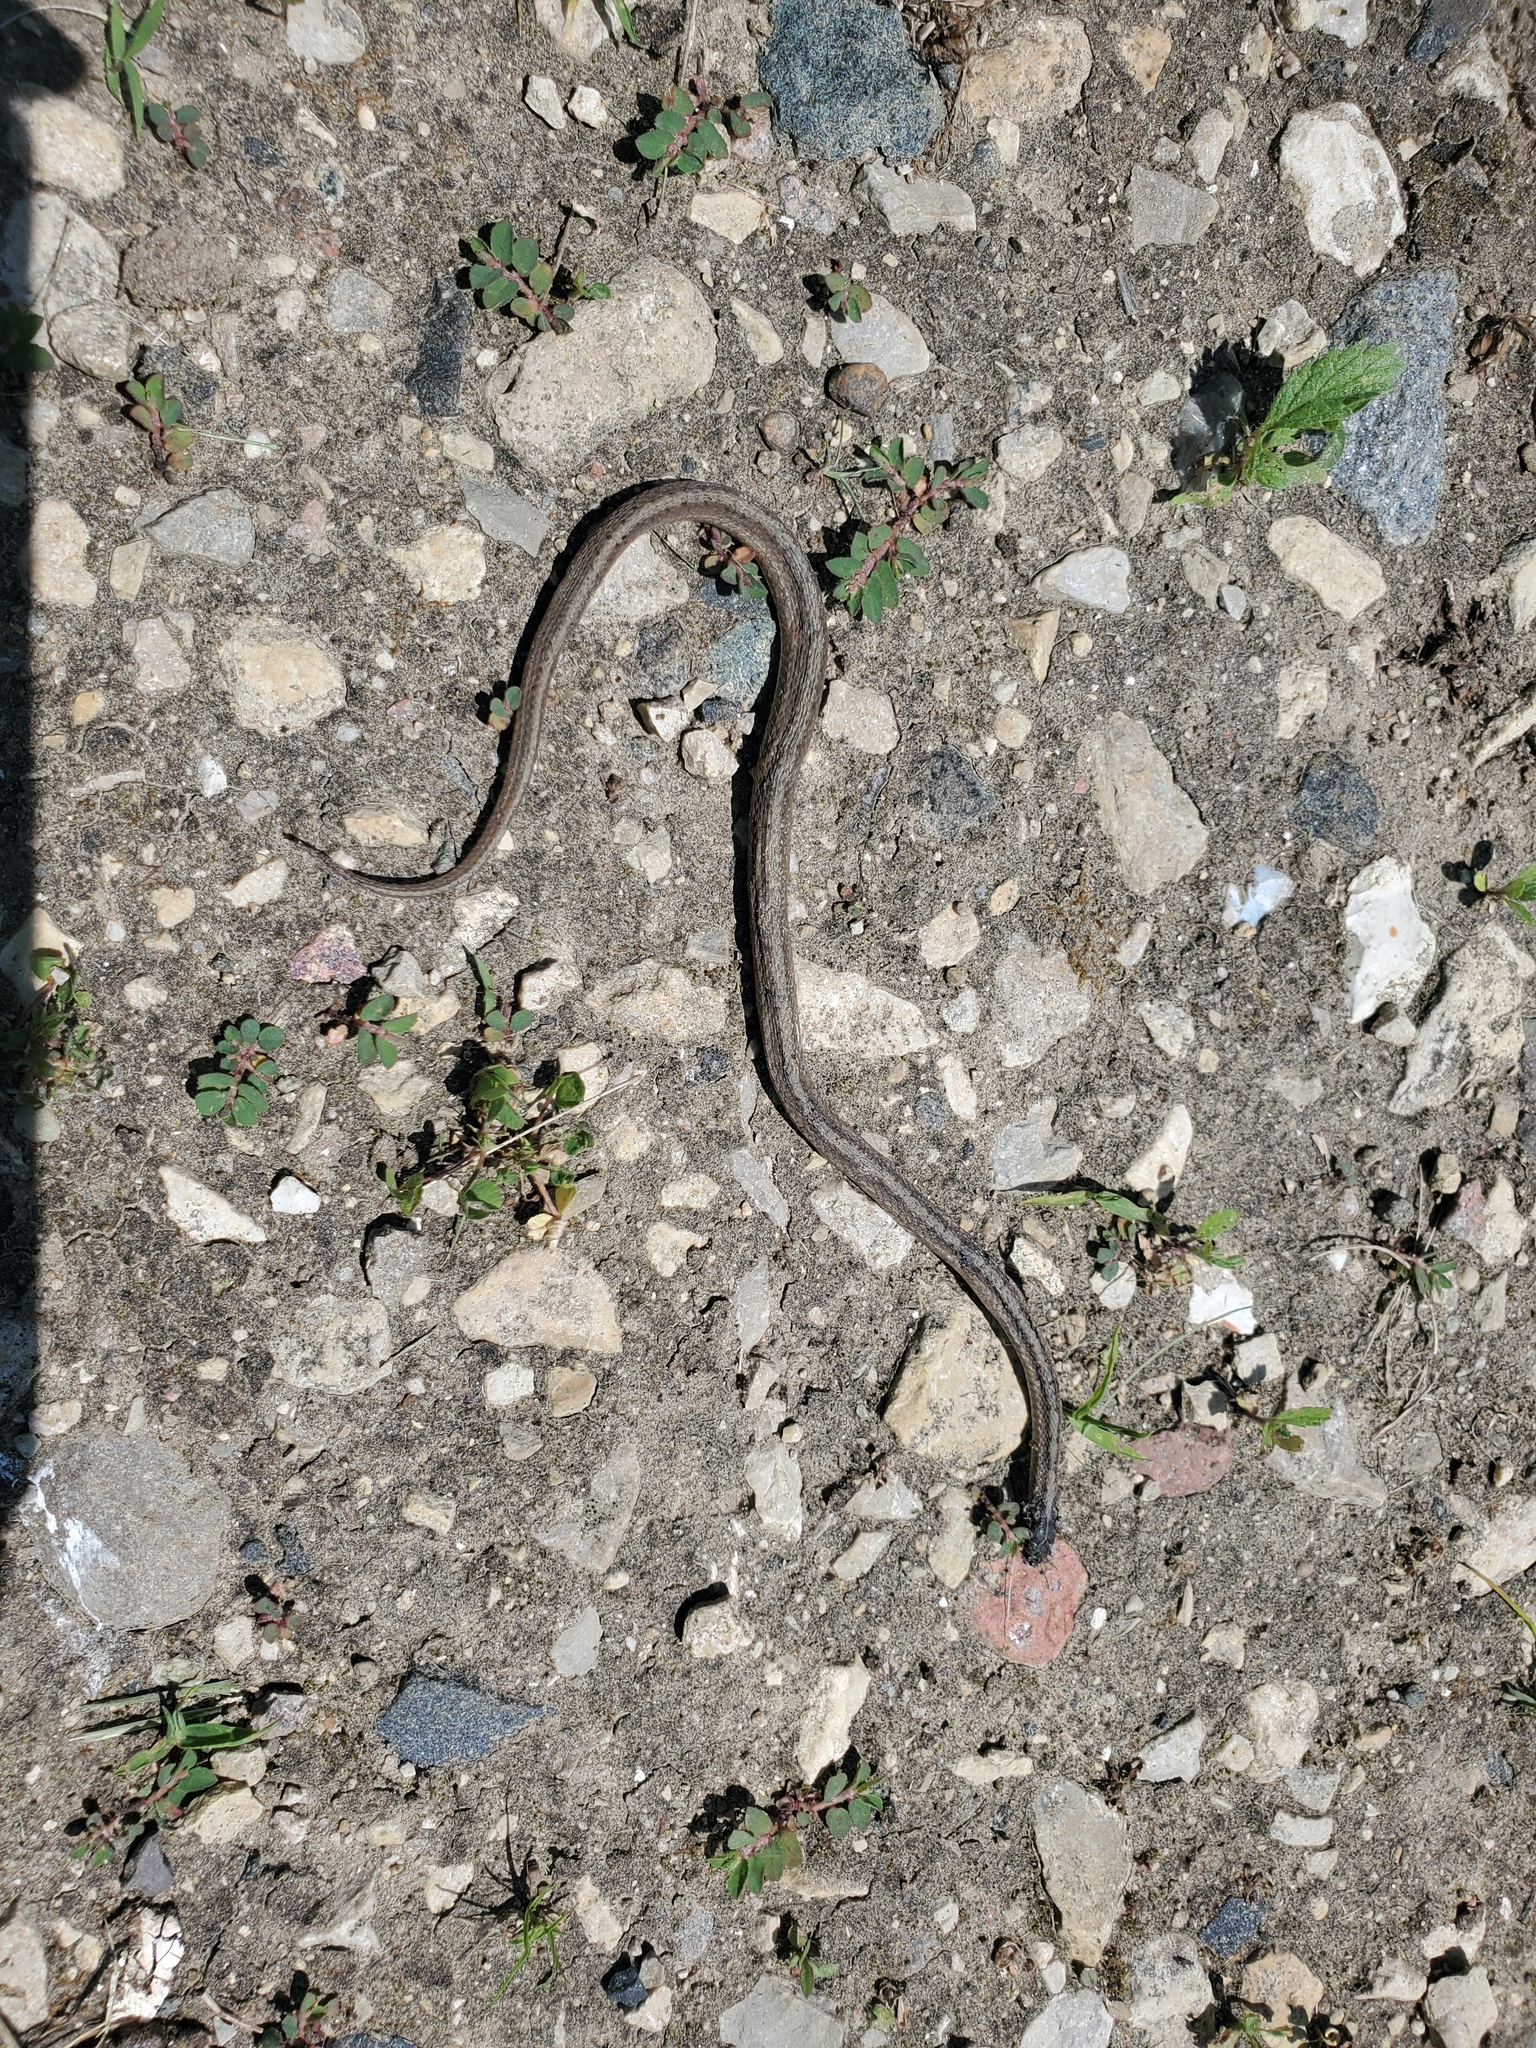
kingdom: Animalia
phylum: Chordata
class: Squamata
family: Colubridae
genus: Storeria
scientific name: Storeria dekayi
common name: (dekay’s) brown snake
